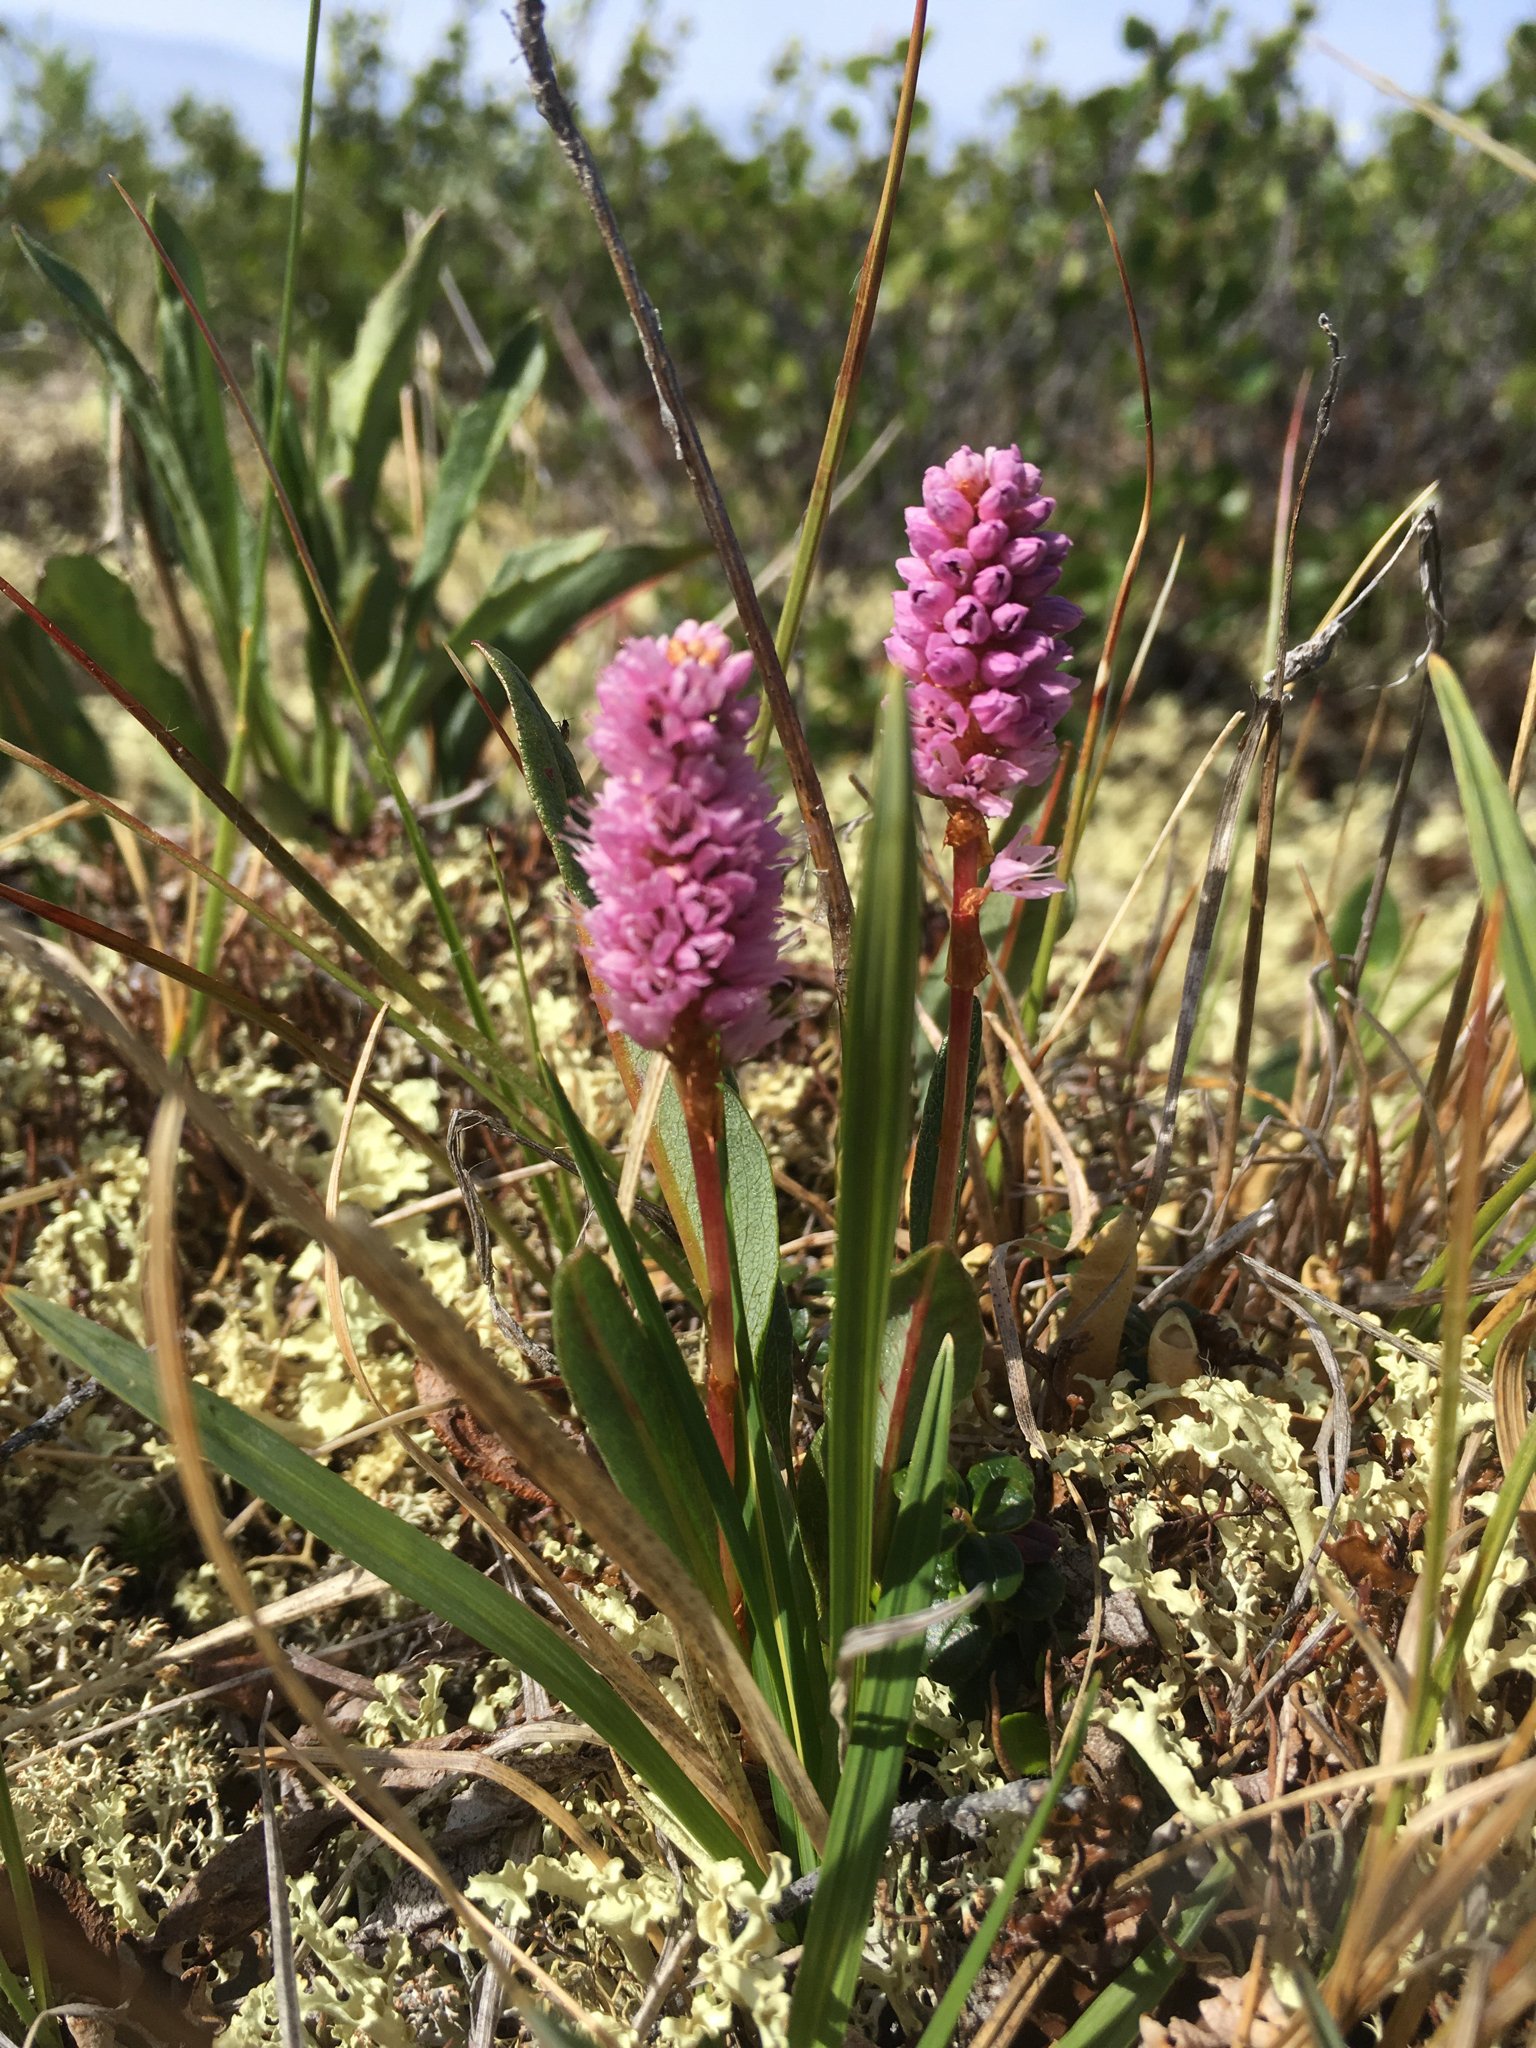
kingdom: Plantae
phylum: Tracheophyta
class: Magnoliopsida
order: Caryophyllales
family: Polygonaceae
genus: Bistorta
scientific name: Bistorta plumosa
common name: Meadow bistort
